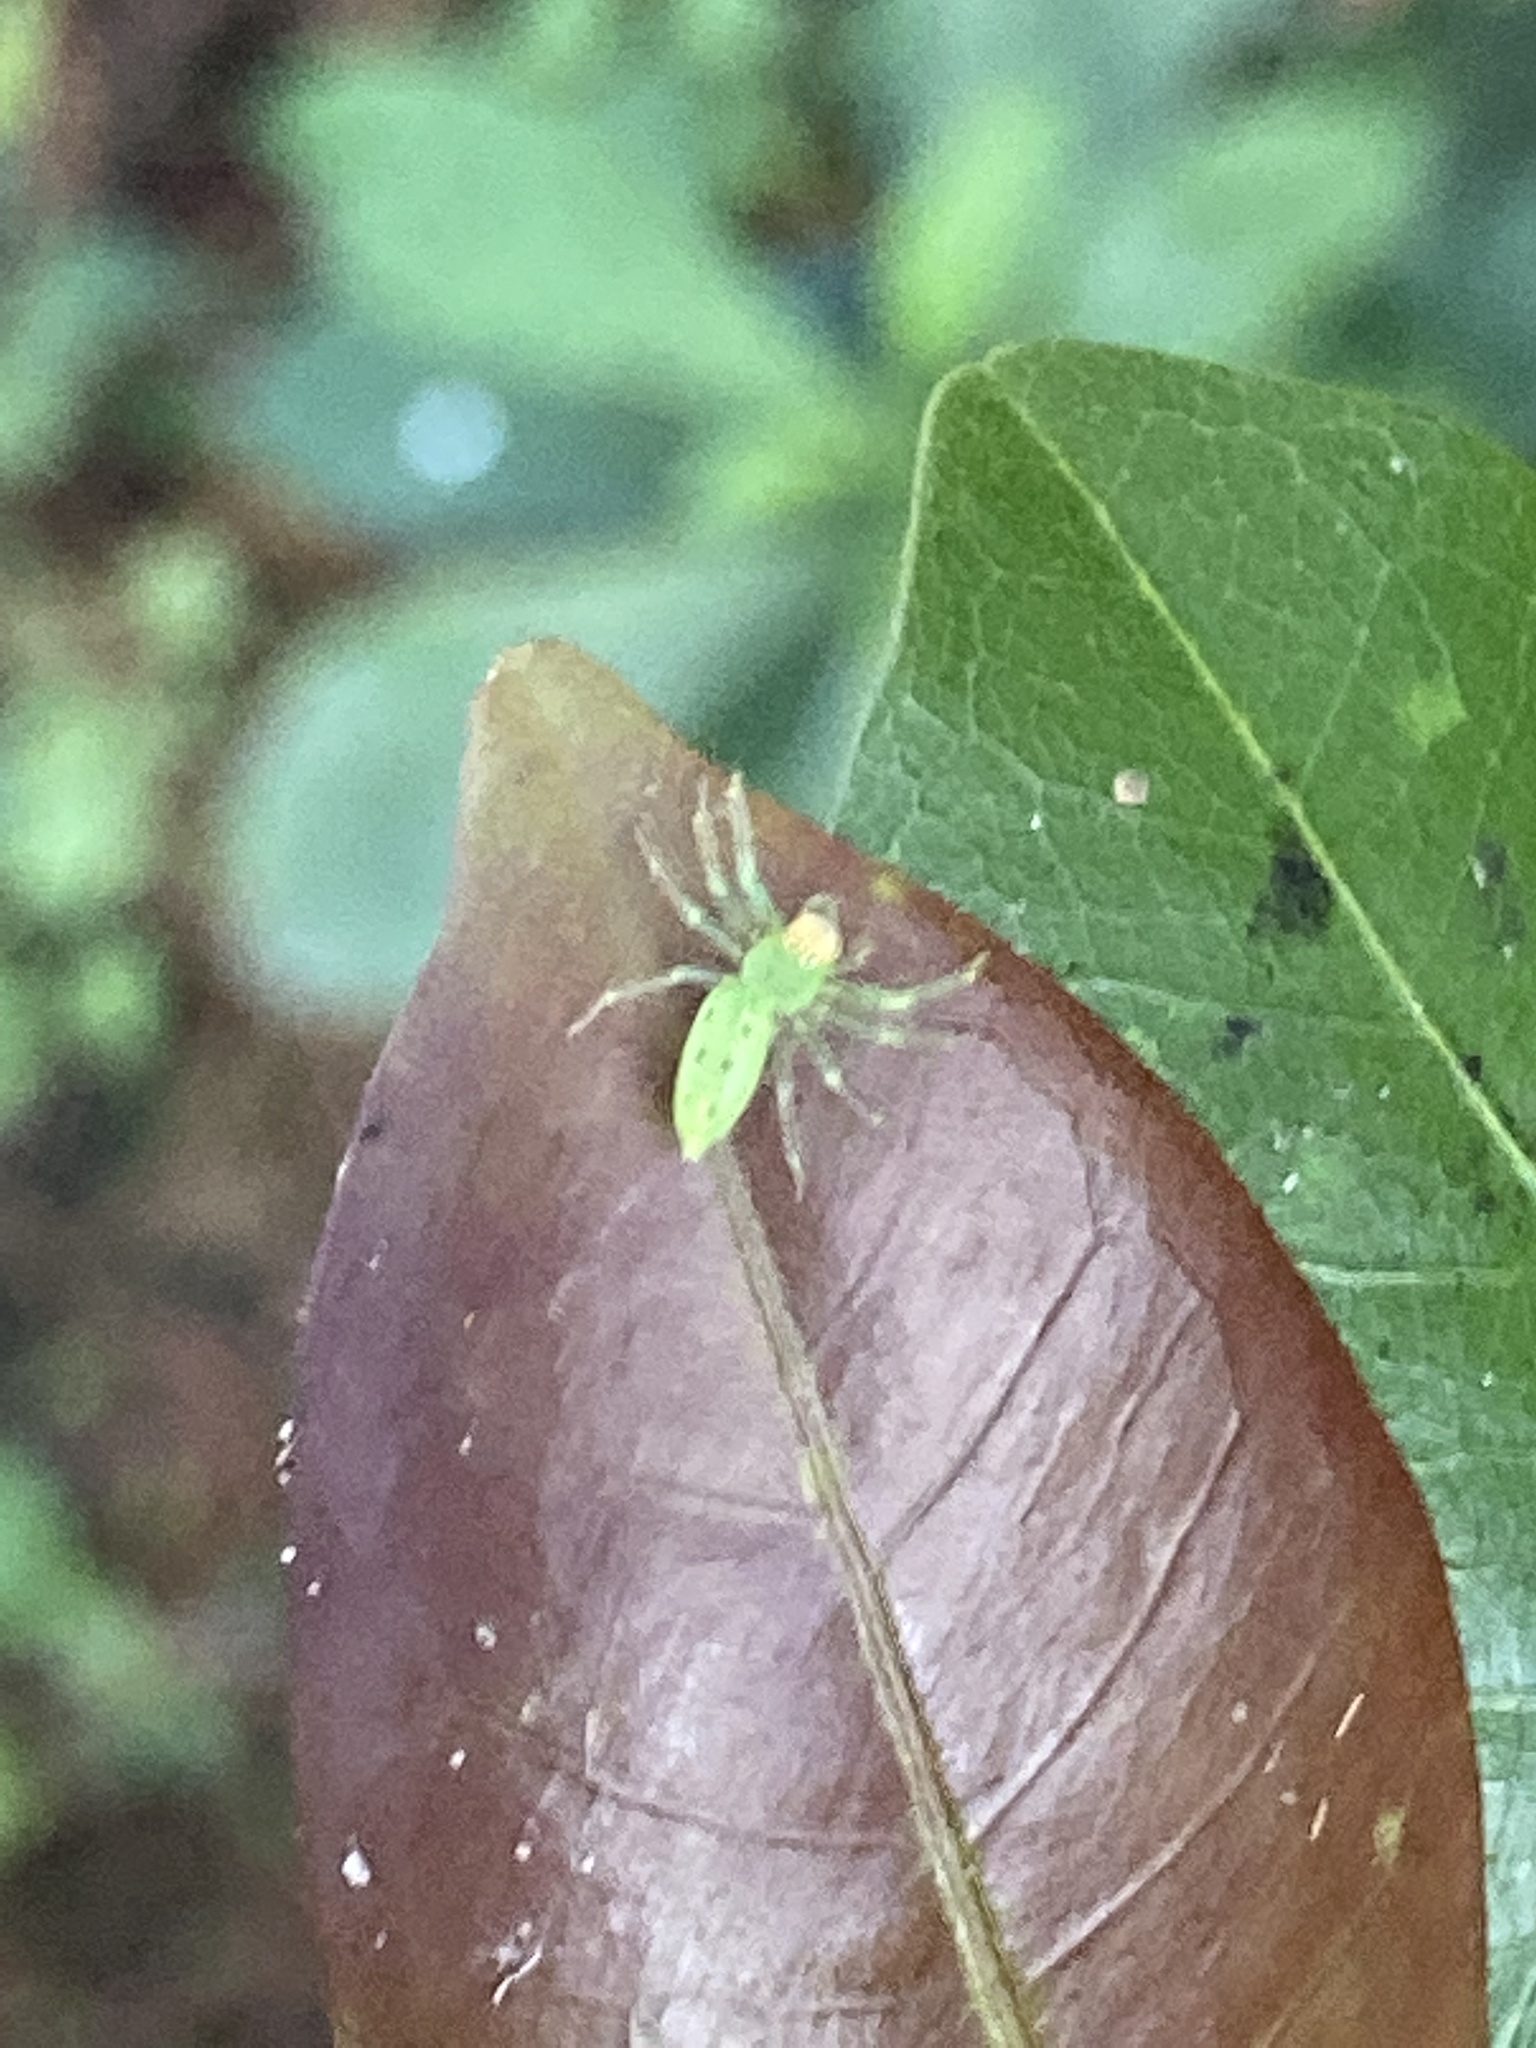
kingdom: Animalia
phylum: Arthropoda
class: Arachnida
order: Araneae
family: Salticidae
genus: Lyssomanes
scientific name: Lyssomanes viridis
